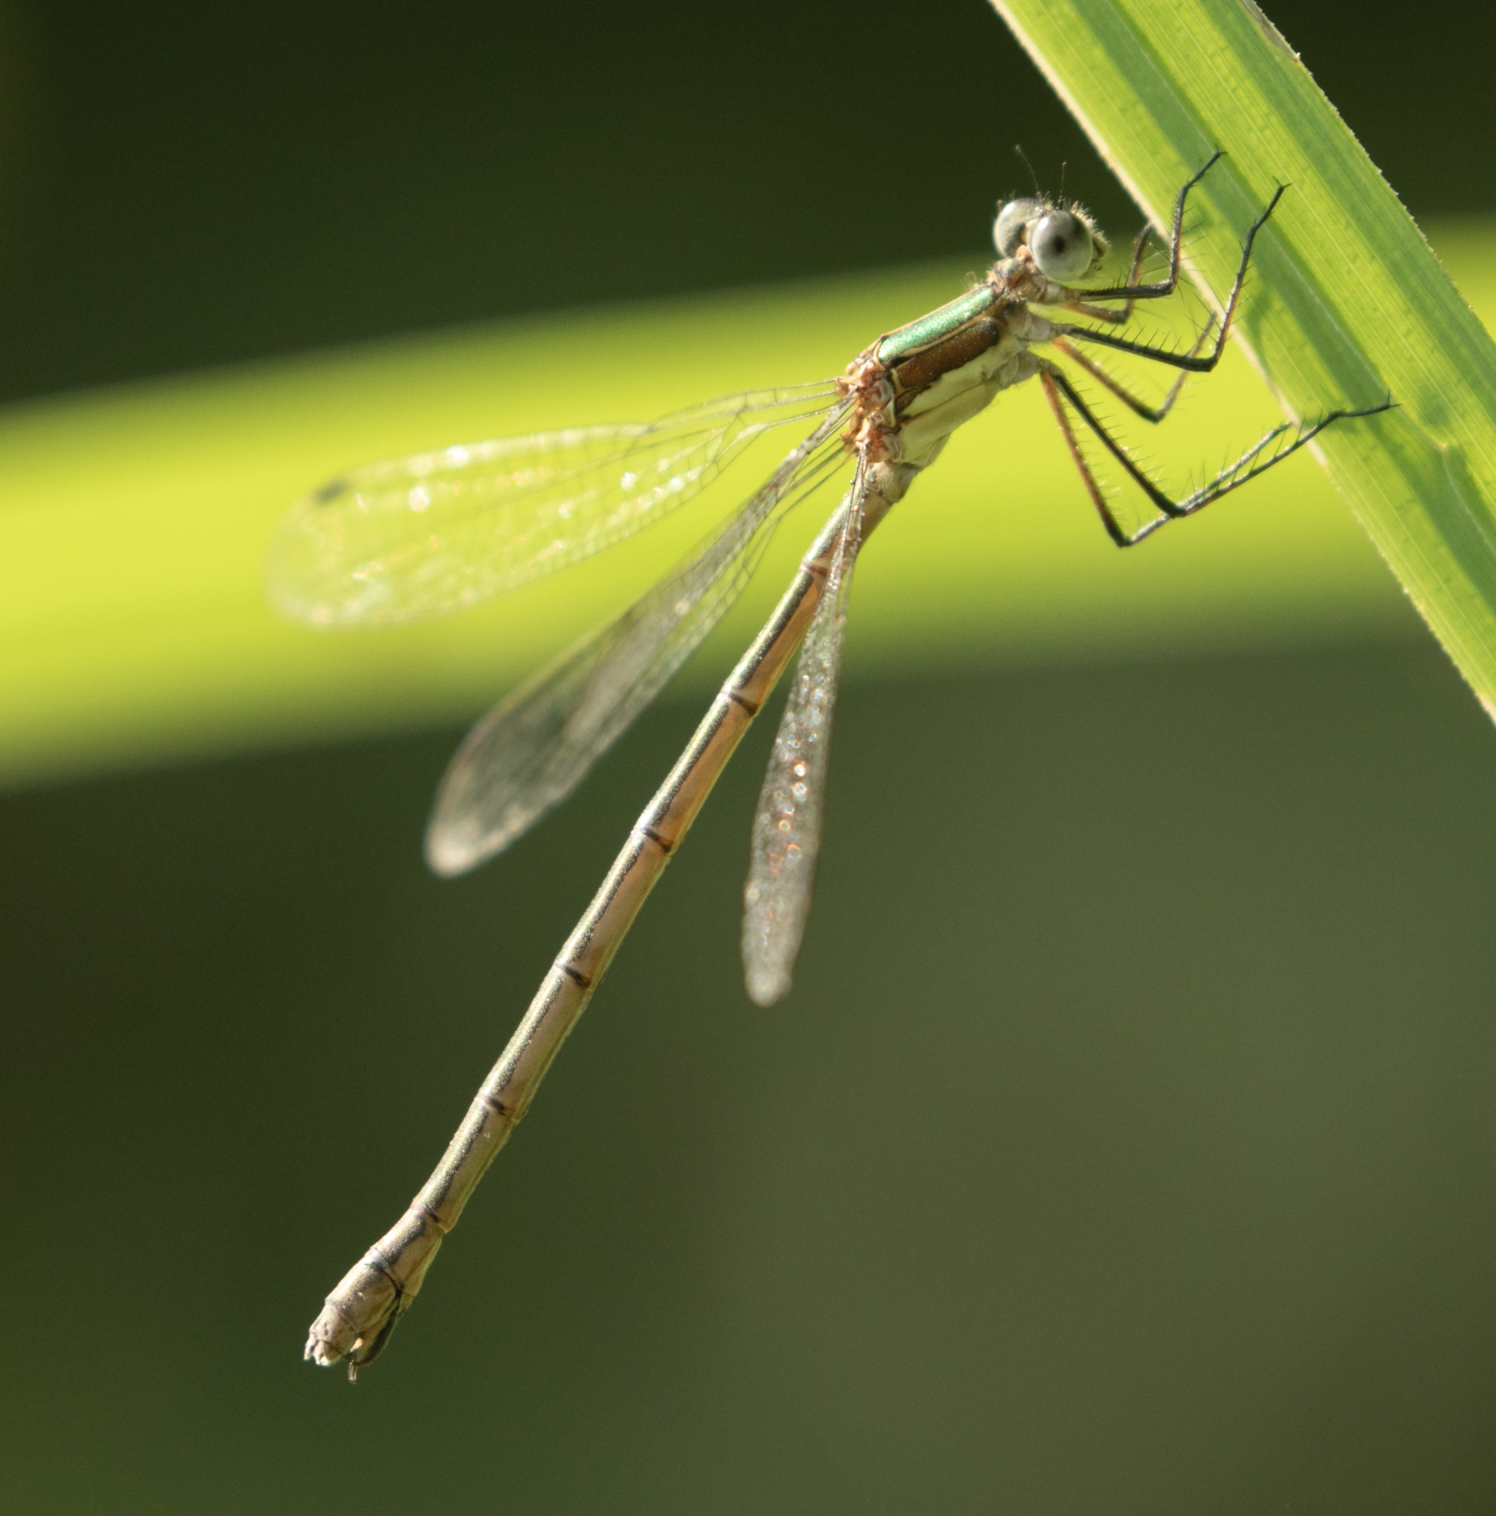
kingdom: Animalia
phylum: Arthropoda
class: Insecta
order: Odonata
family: Lestidae
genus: Lestes
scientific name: Lestes sponsa
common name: Common spreadwing
